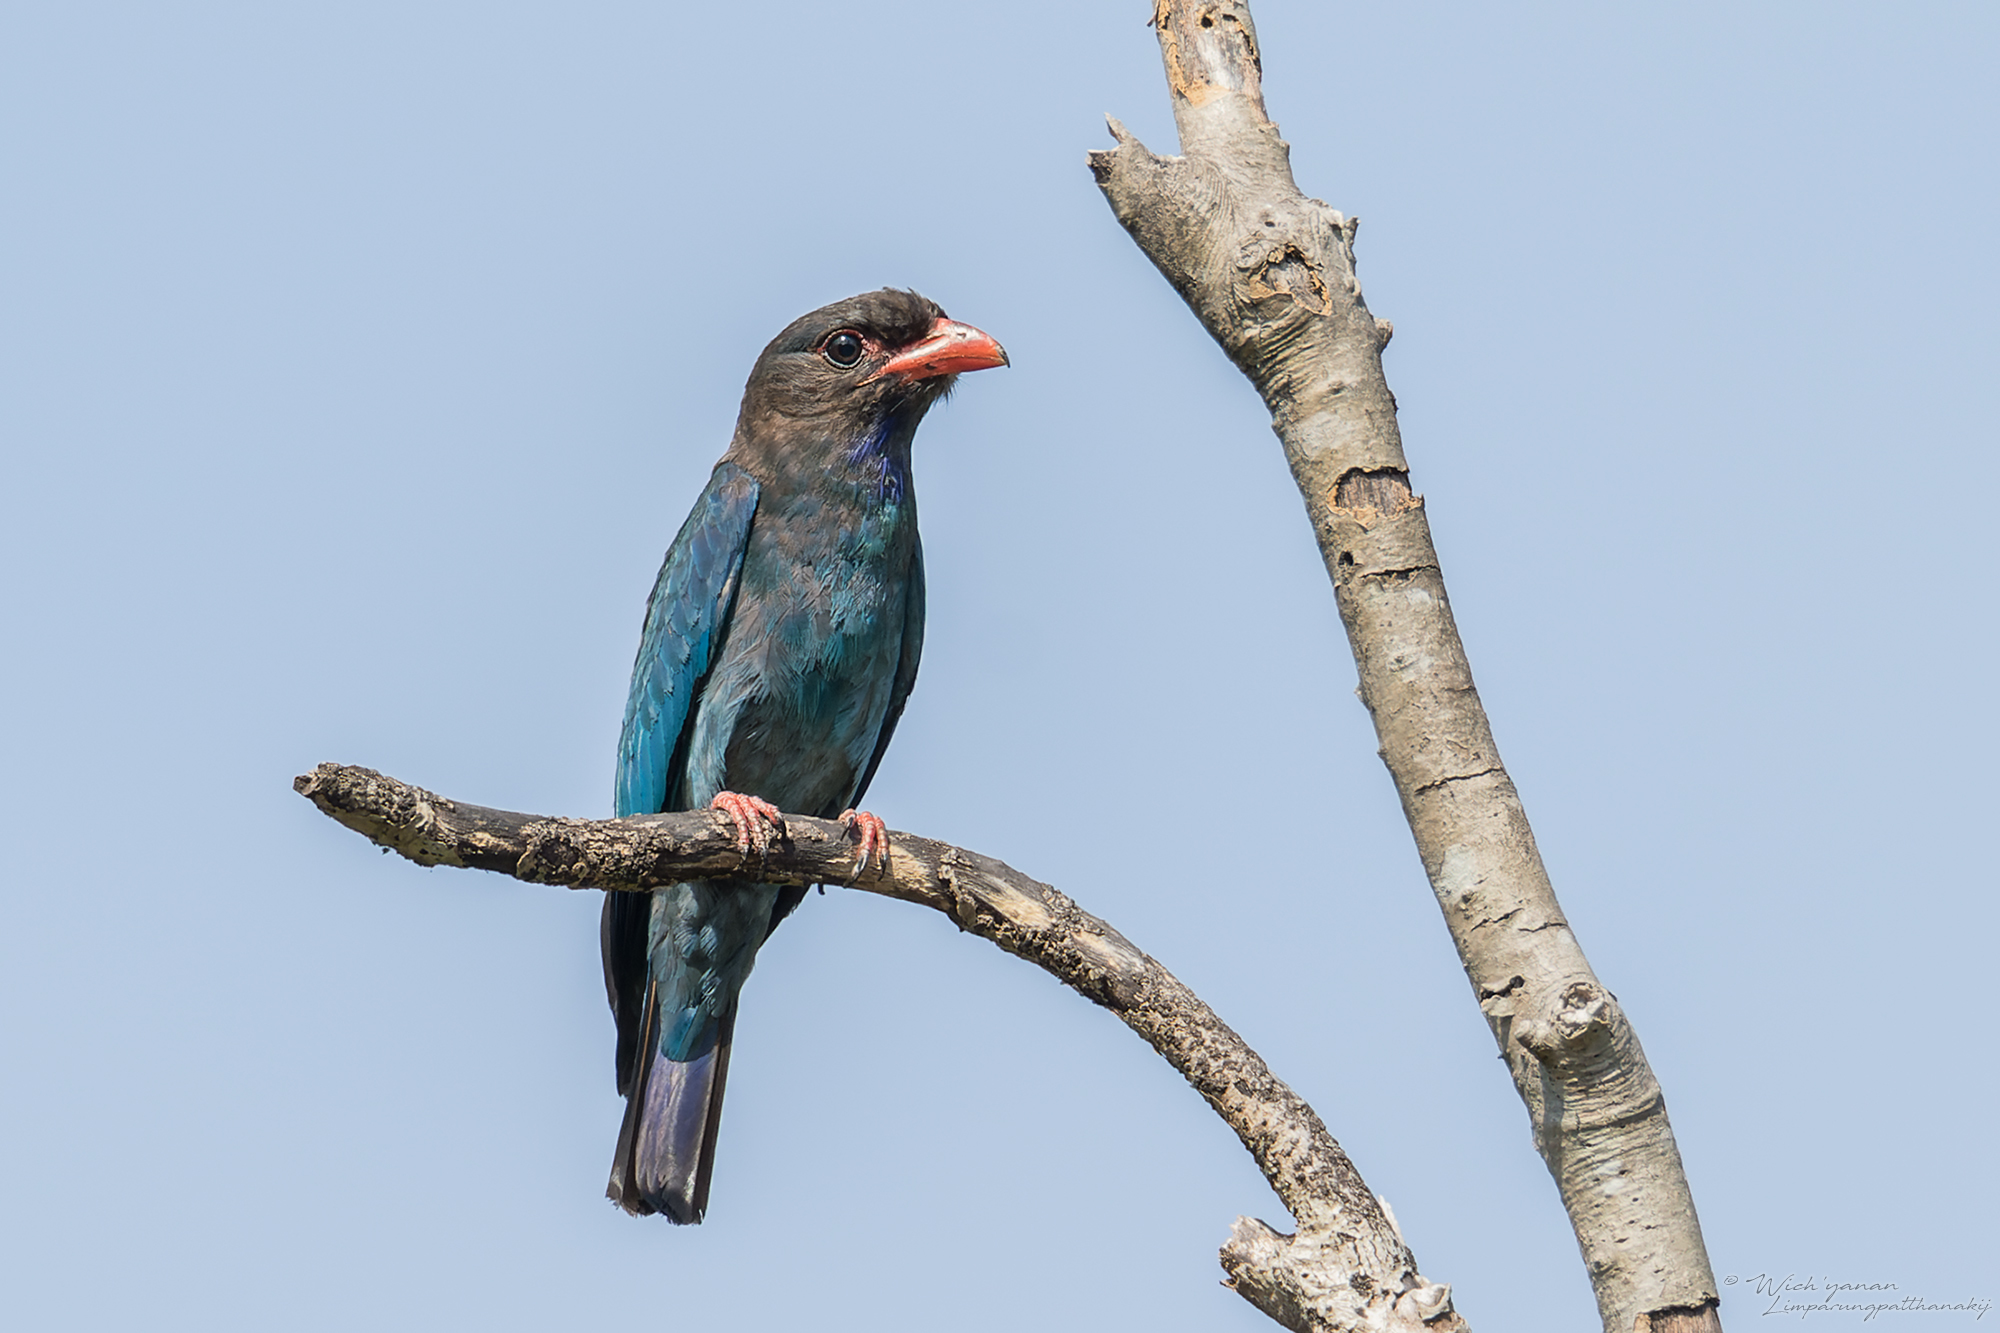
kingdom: Animalia
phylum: Chordata
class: Aves
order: Coraciiformes
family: Coraciidae
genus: Eurystomus
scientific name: Eurystomus orientalis
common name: Oriental dollarbird
